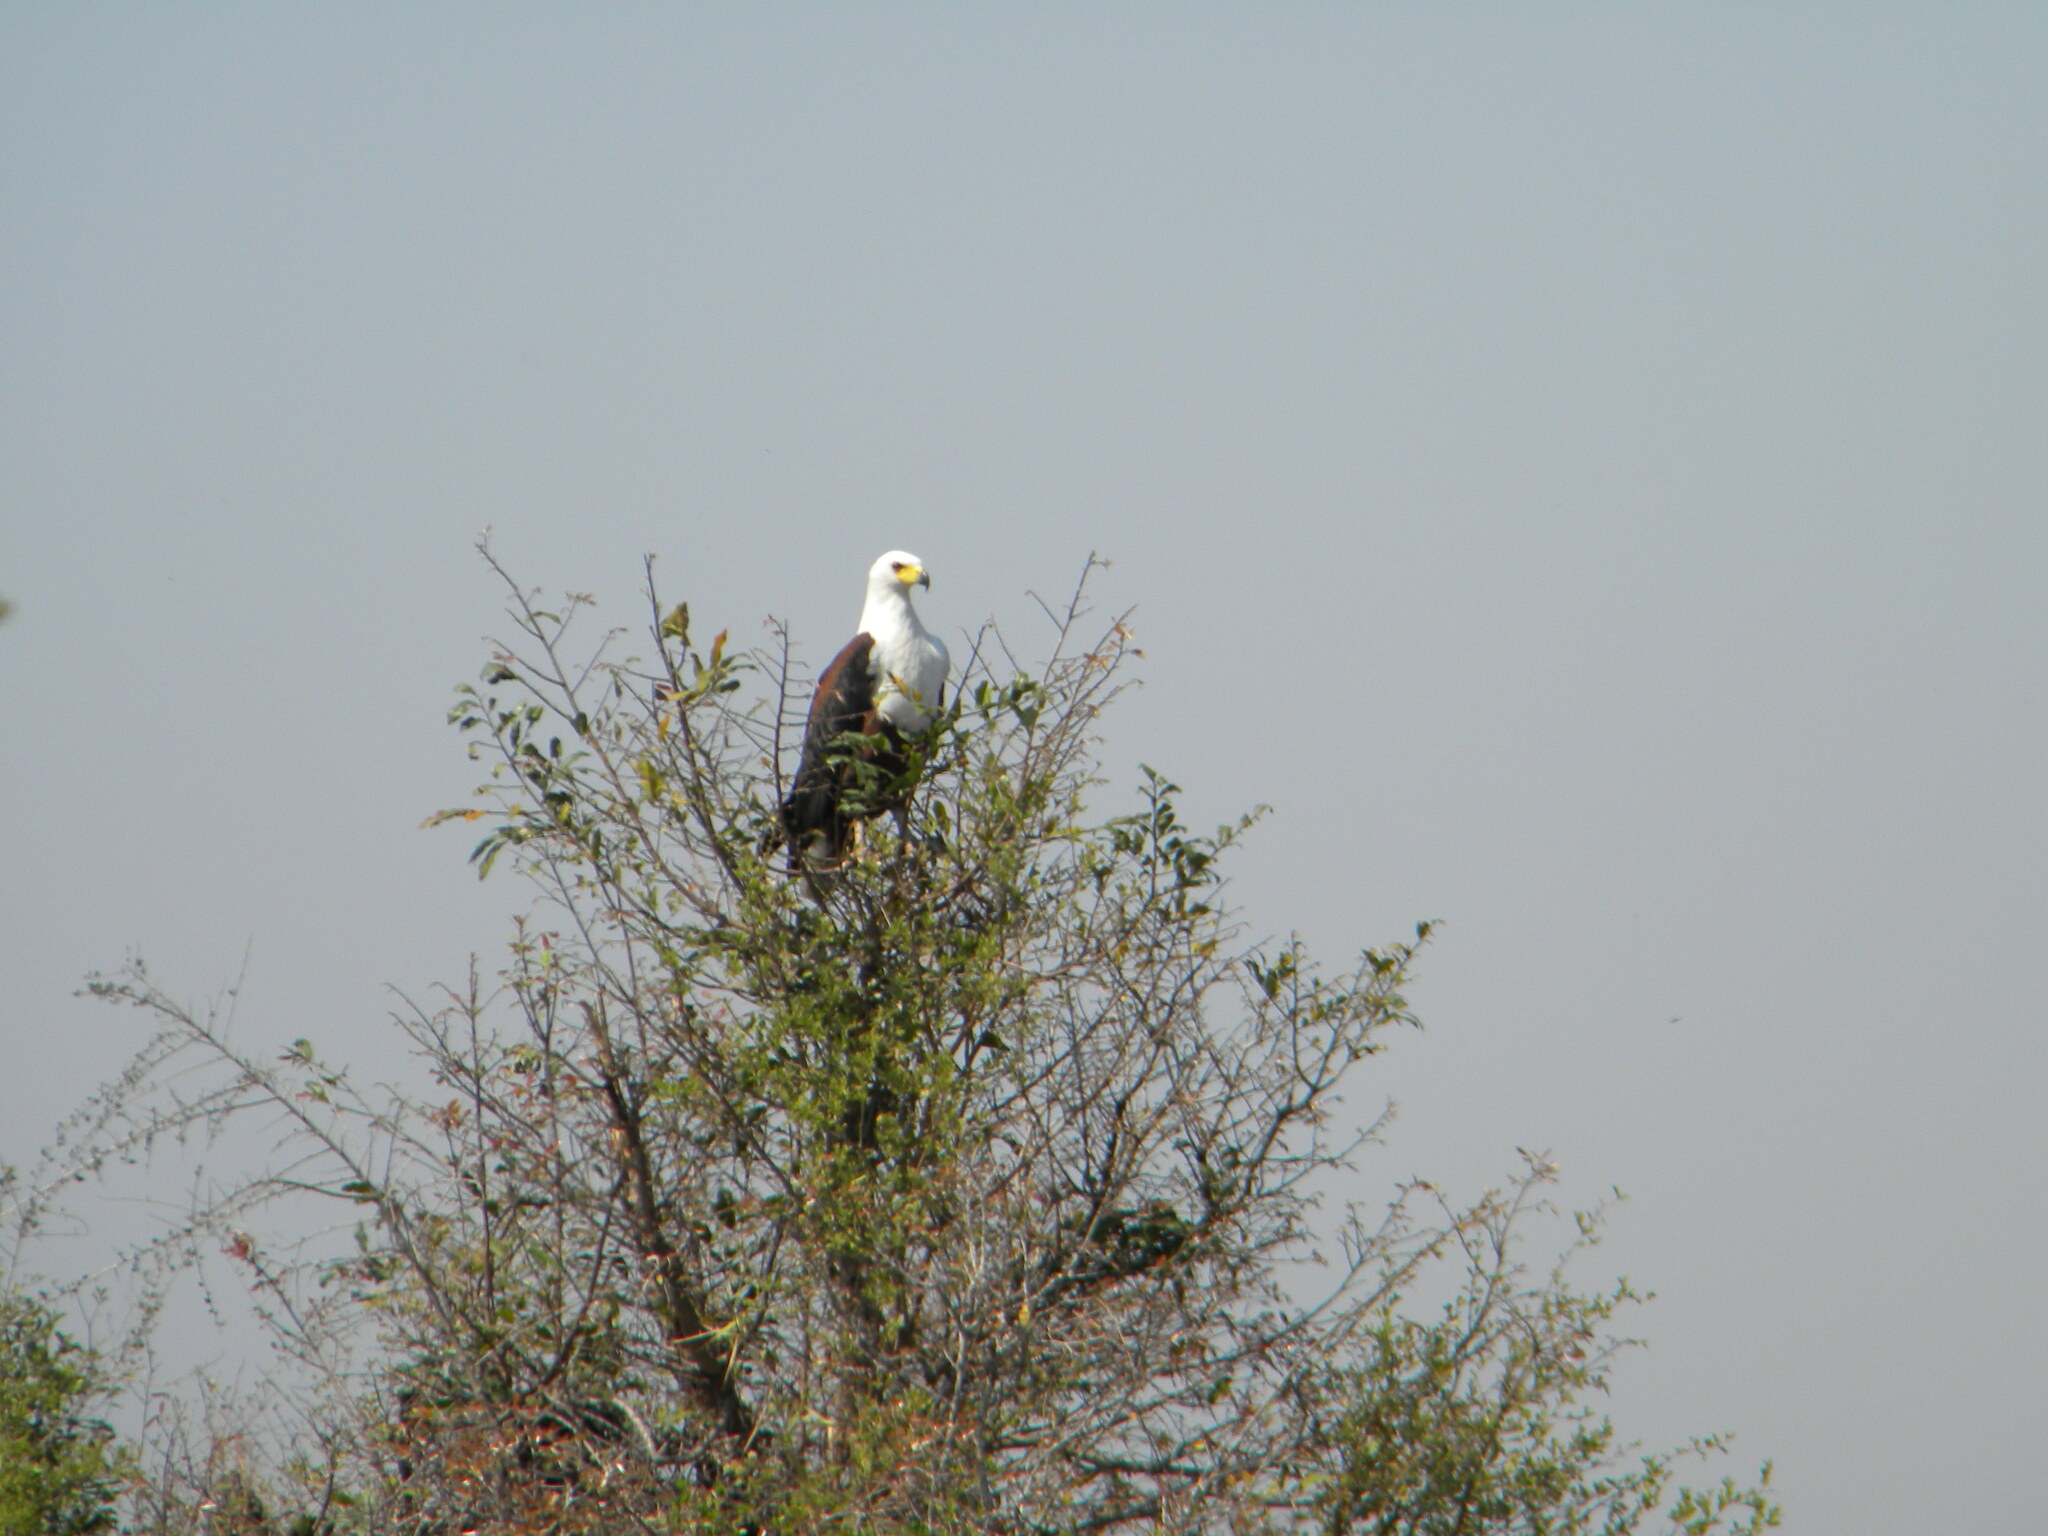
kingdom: Animalia
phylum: Chordata
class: Aves
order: Accipitriformes
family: Accipitridae
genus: Haliaeetus
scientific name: Haliaeetus vocifer
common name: African fish eagle
